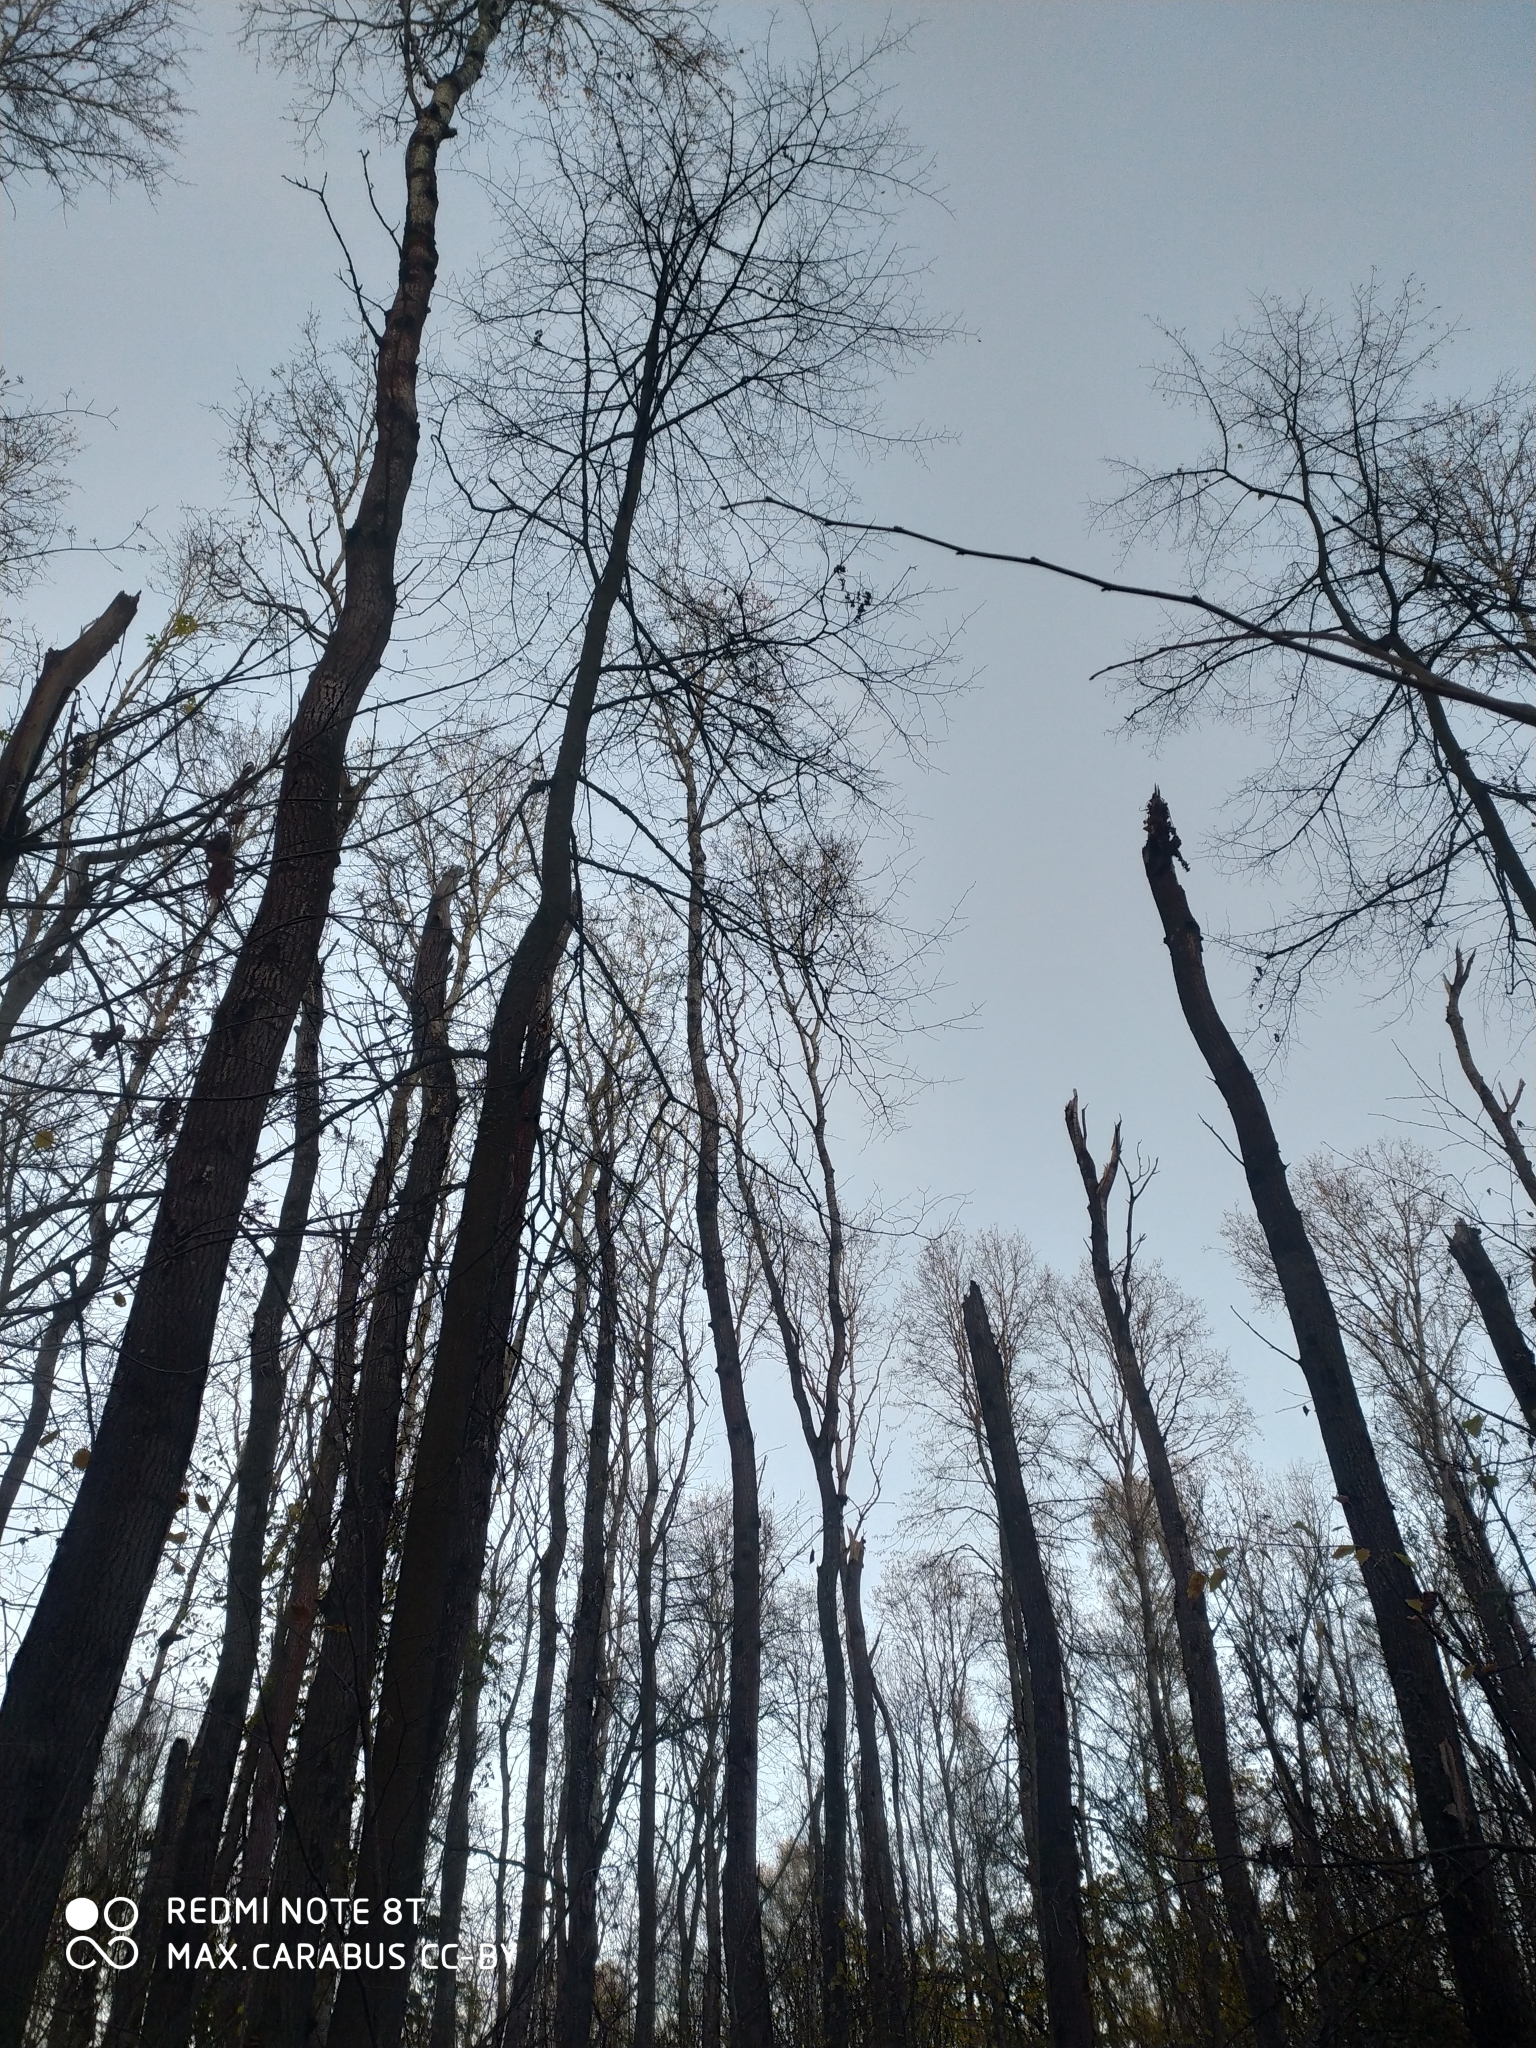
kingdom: Plantae
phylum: Tracheophyta
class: Magnoliopsida
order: Malpighiales
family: Salicaceae
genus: Populus
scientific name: Populus tremula
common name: European aspen
